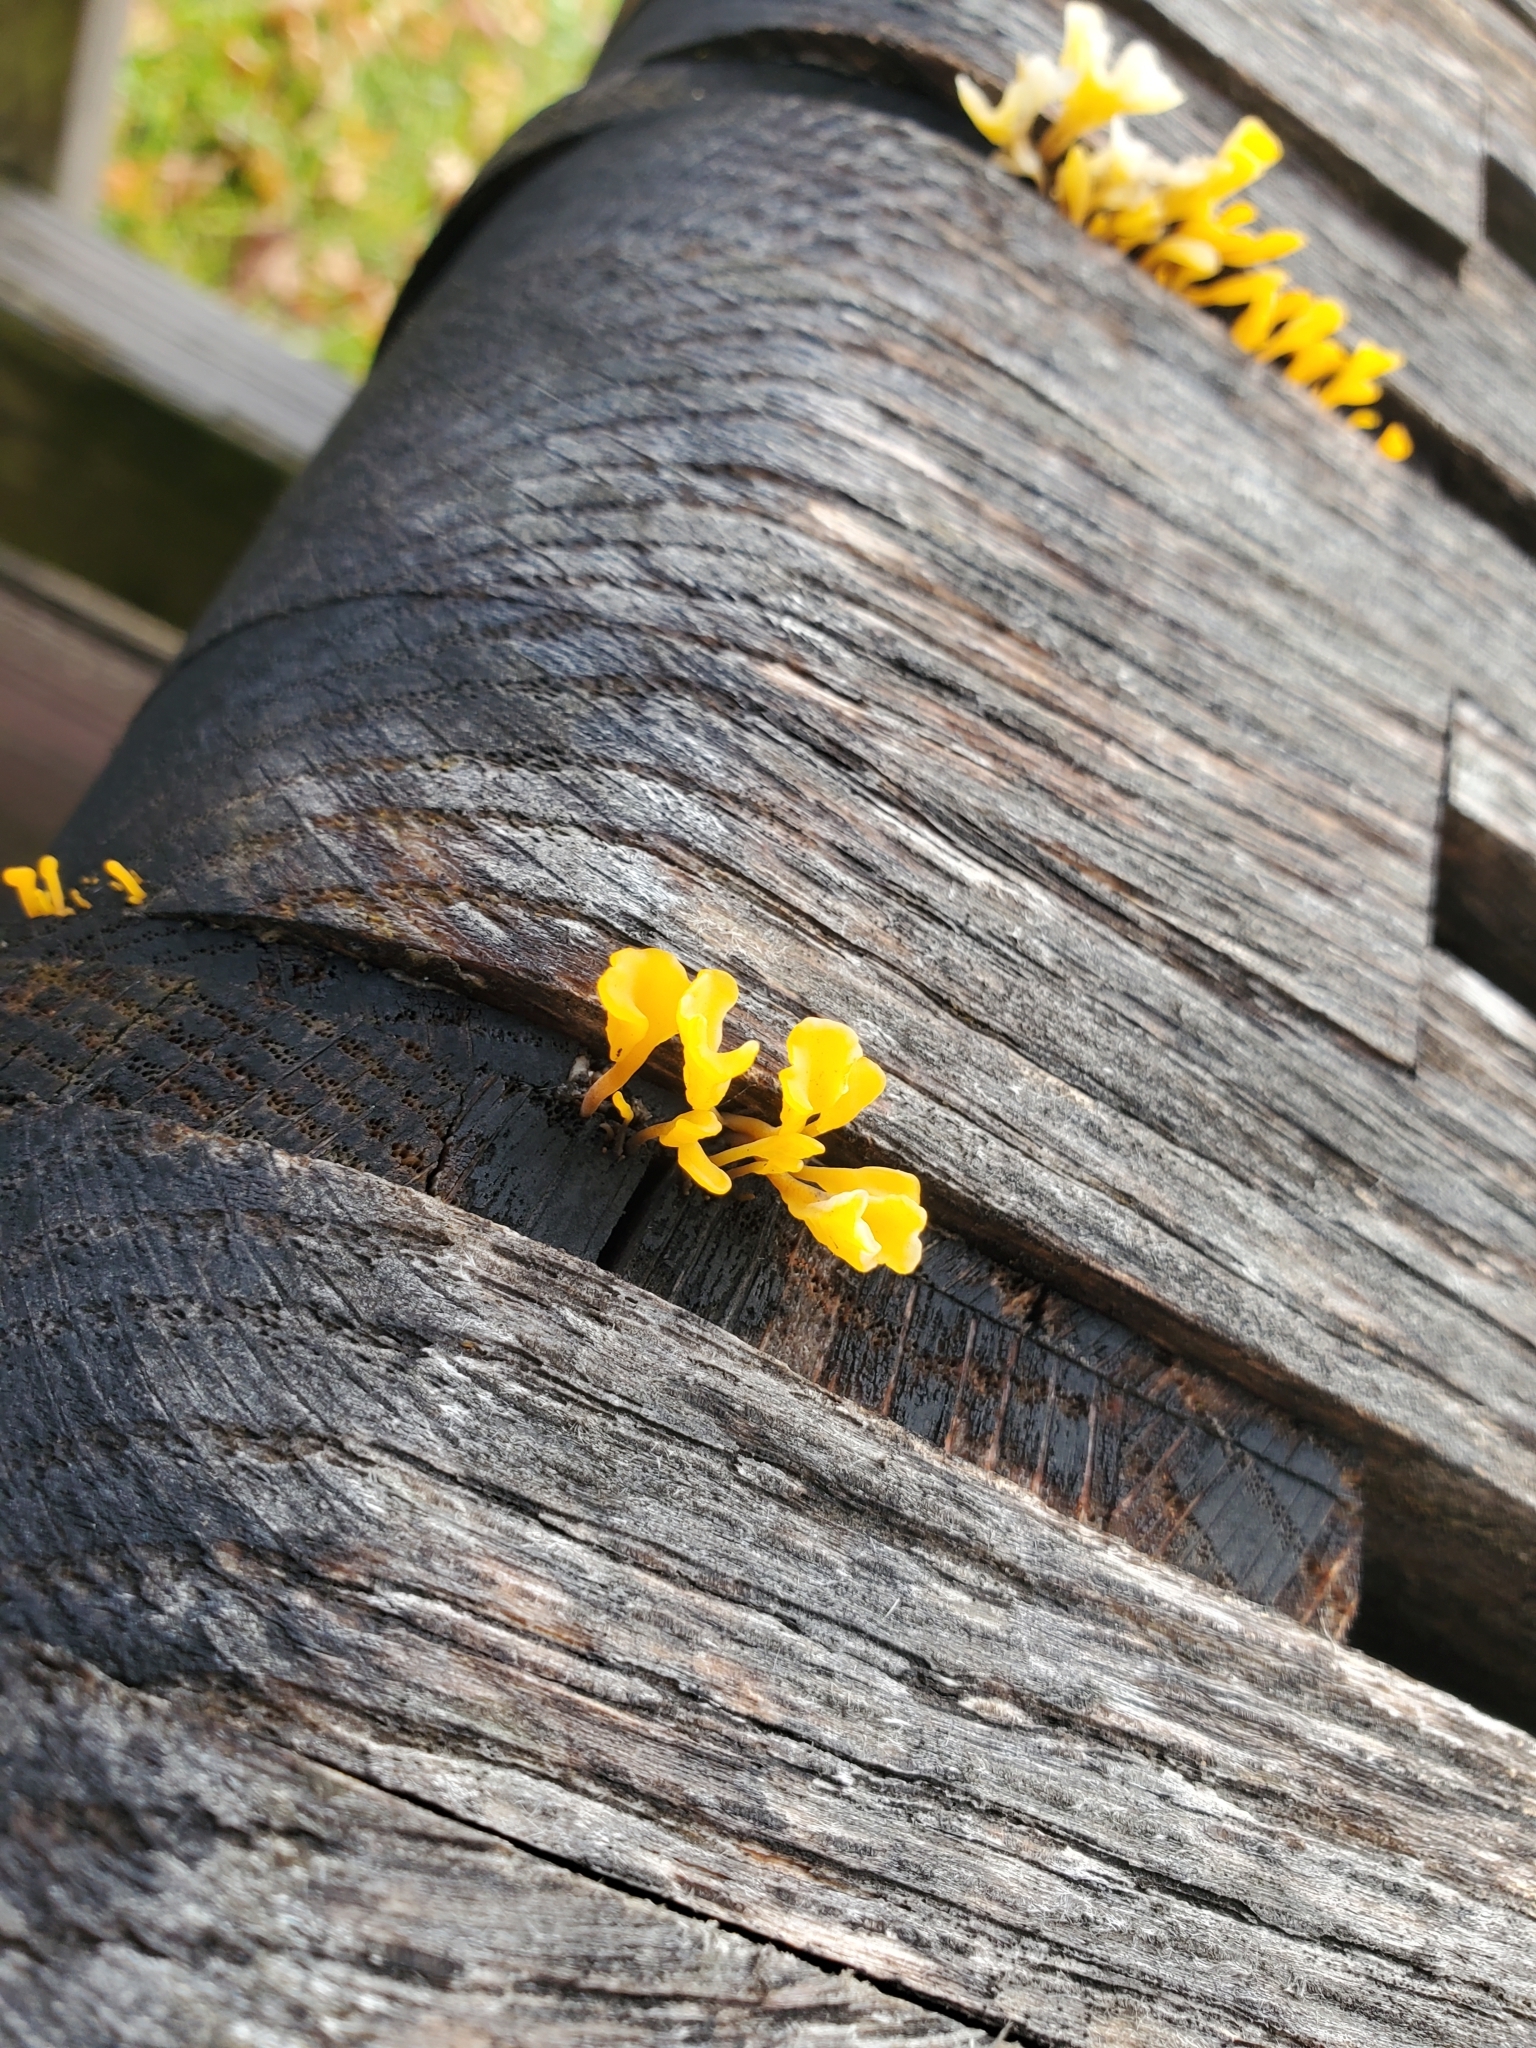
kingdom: Fungi
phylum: Basidiomycota
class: Dacrymycetes
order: Dacrymycetales
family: Dacrymycetaceae
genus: Dacrymyces
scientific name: Dacrymyces spathularius
